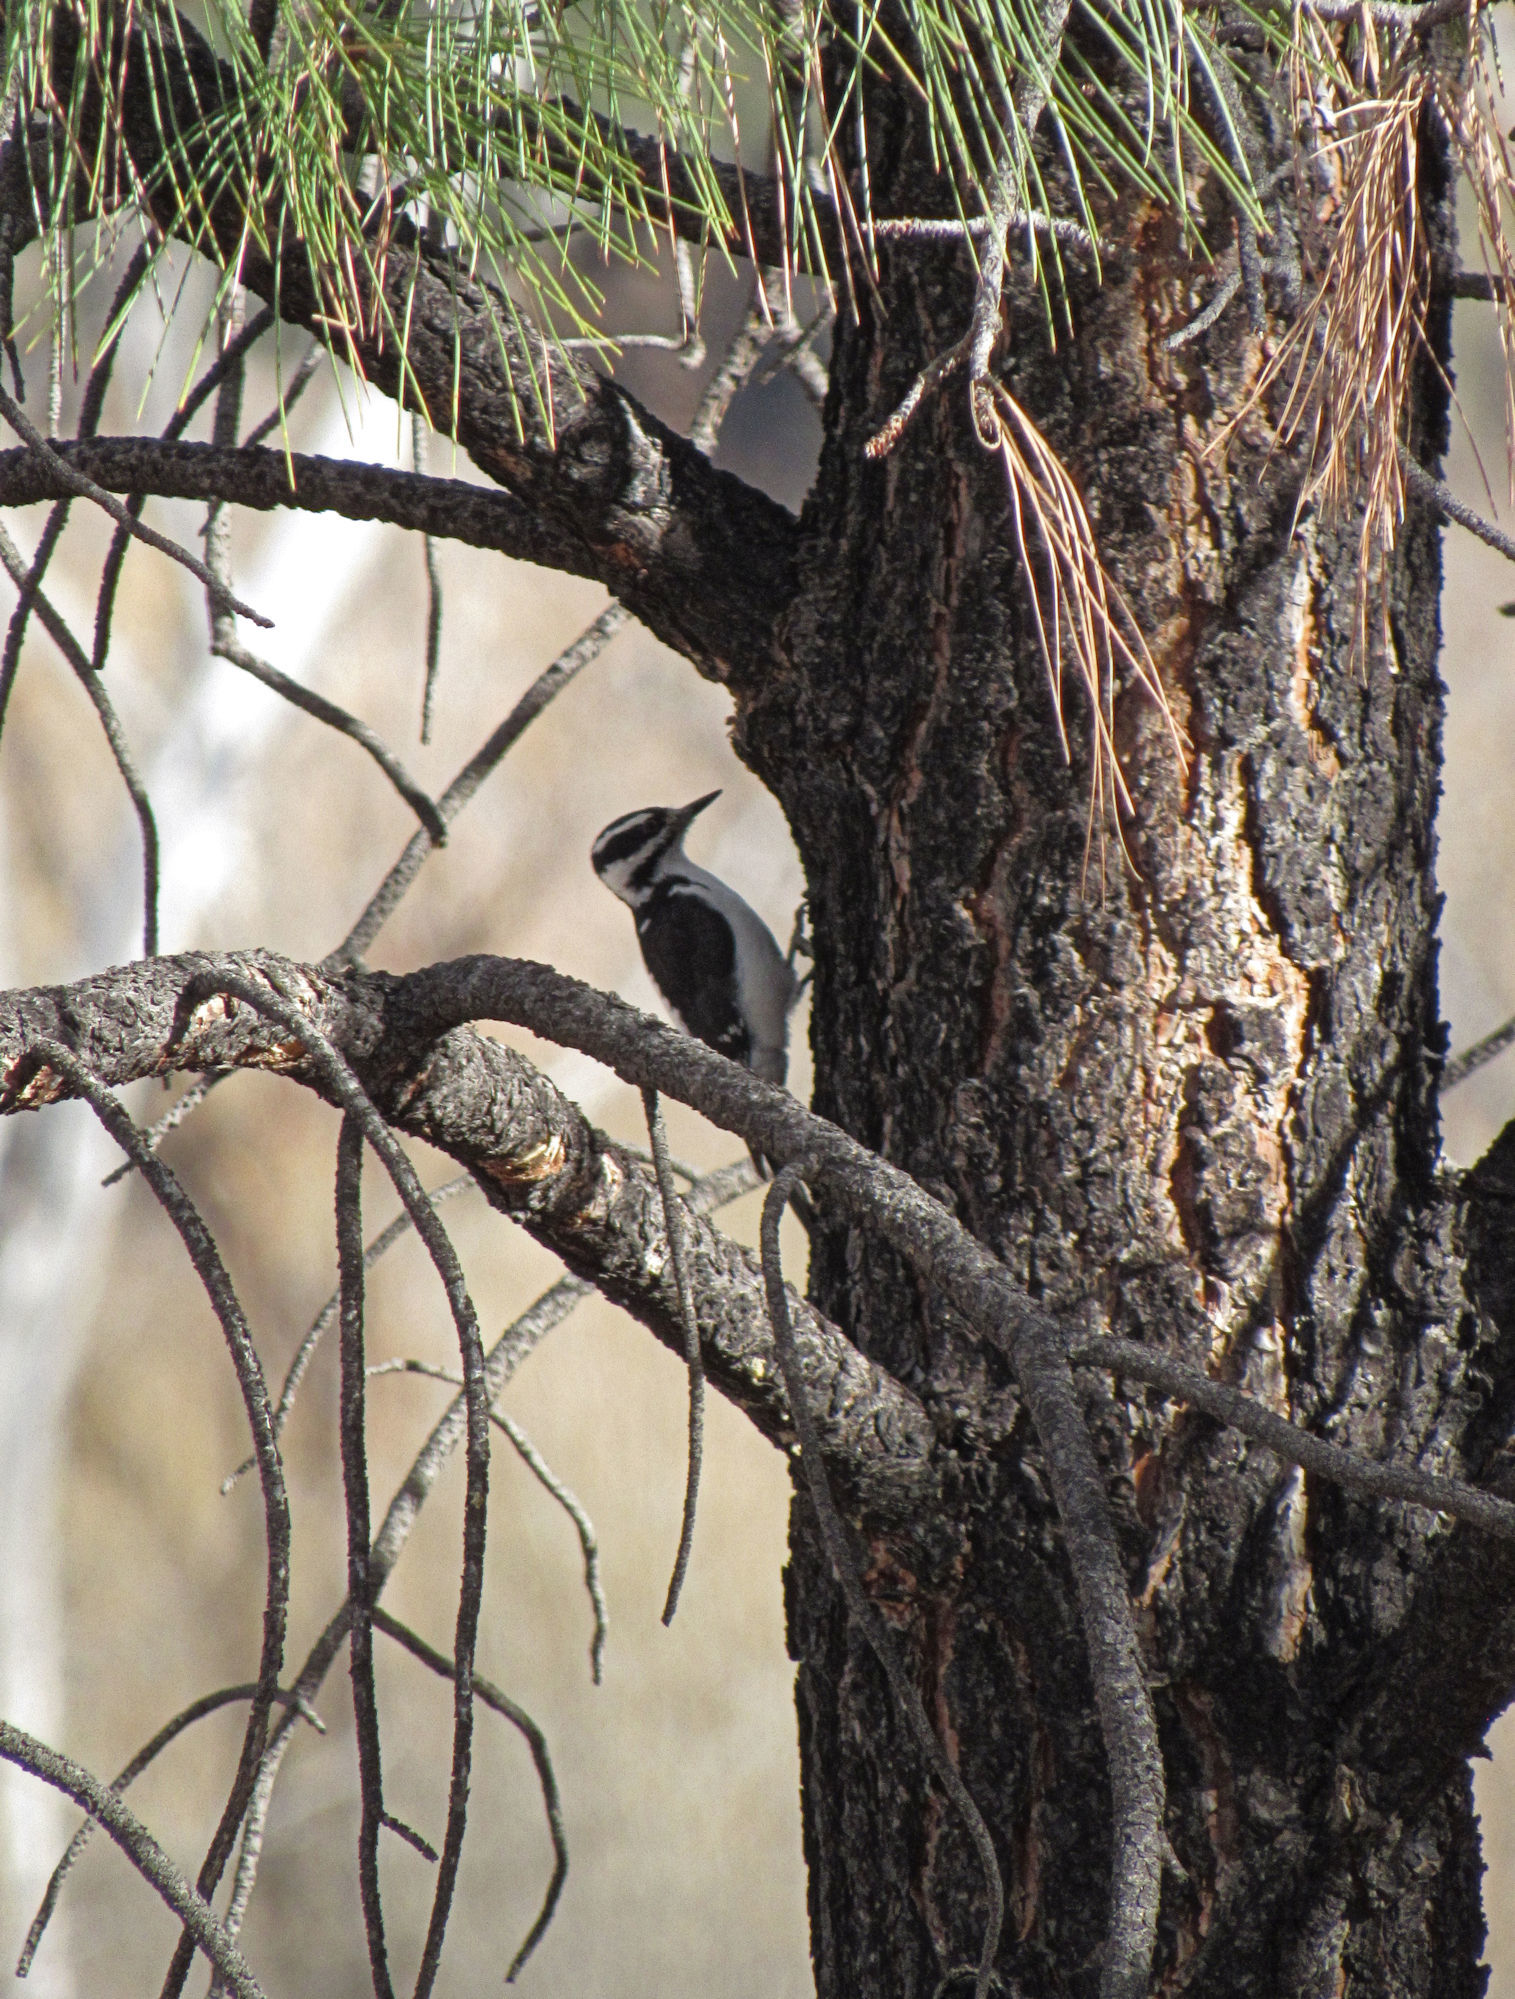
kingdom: Animalia
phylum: Chordata
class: Aves
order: Piciformes
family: Picidae
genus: Leuconotopicus
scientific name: Leuconotopicus villosus
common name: Hairy woodpecker
